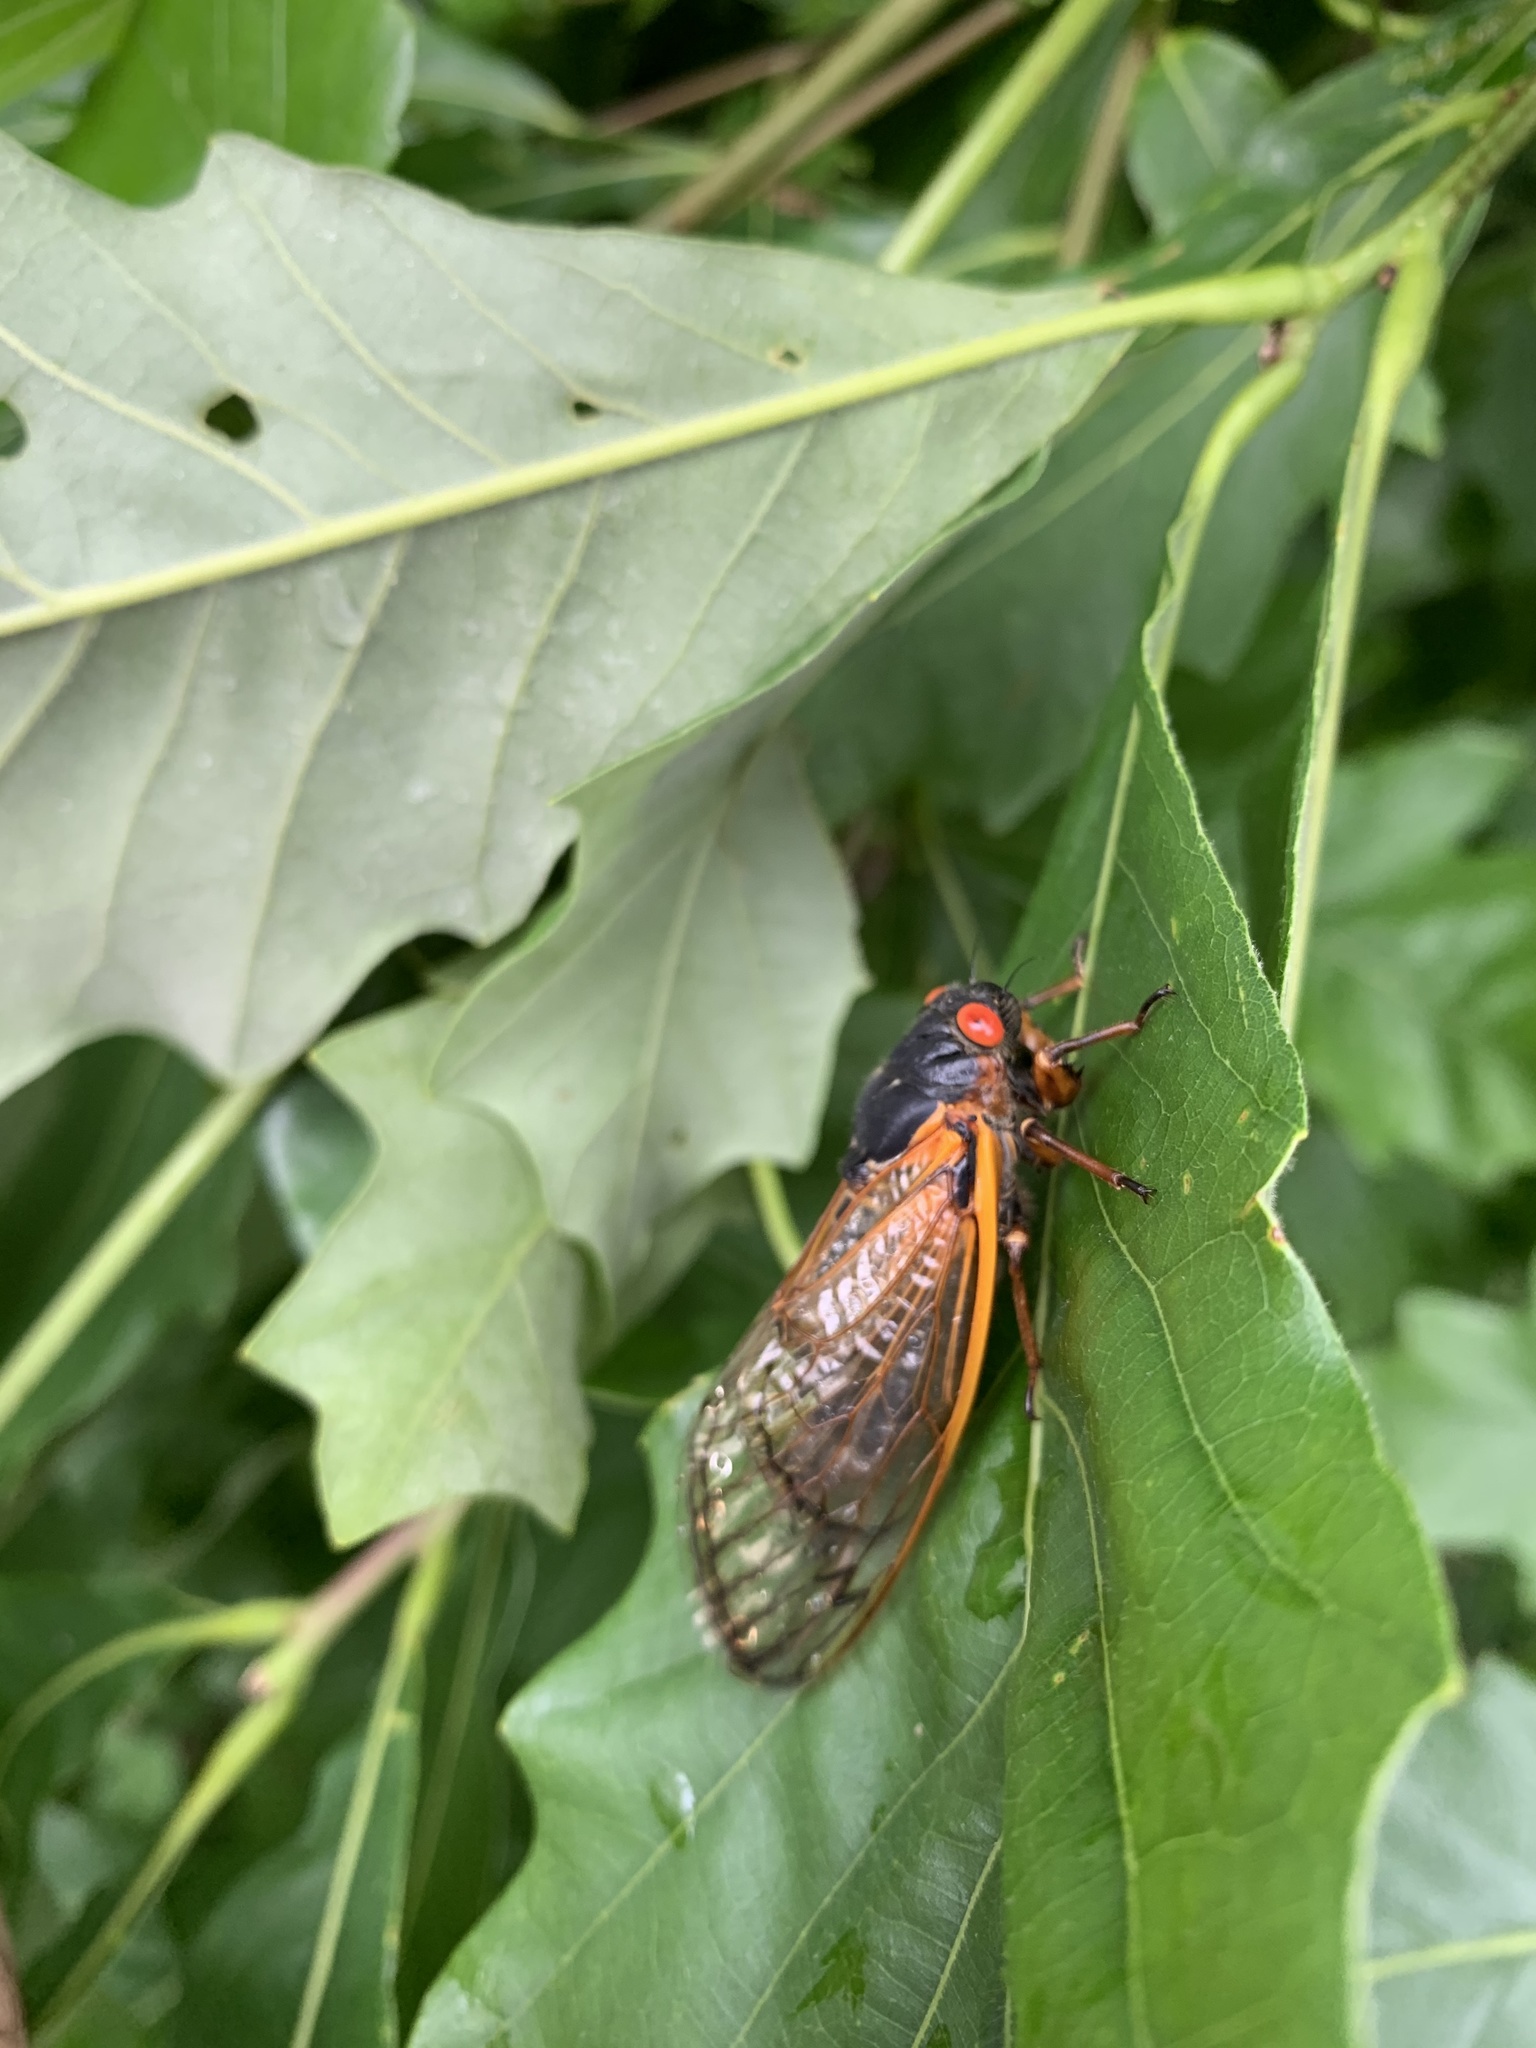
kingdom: Animalia
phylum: Arthropoda
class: Insecta
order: Hemiptera
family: Cicadidae
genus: Magicicada
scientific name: Magicicada septendecim
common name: Periodical cicada
